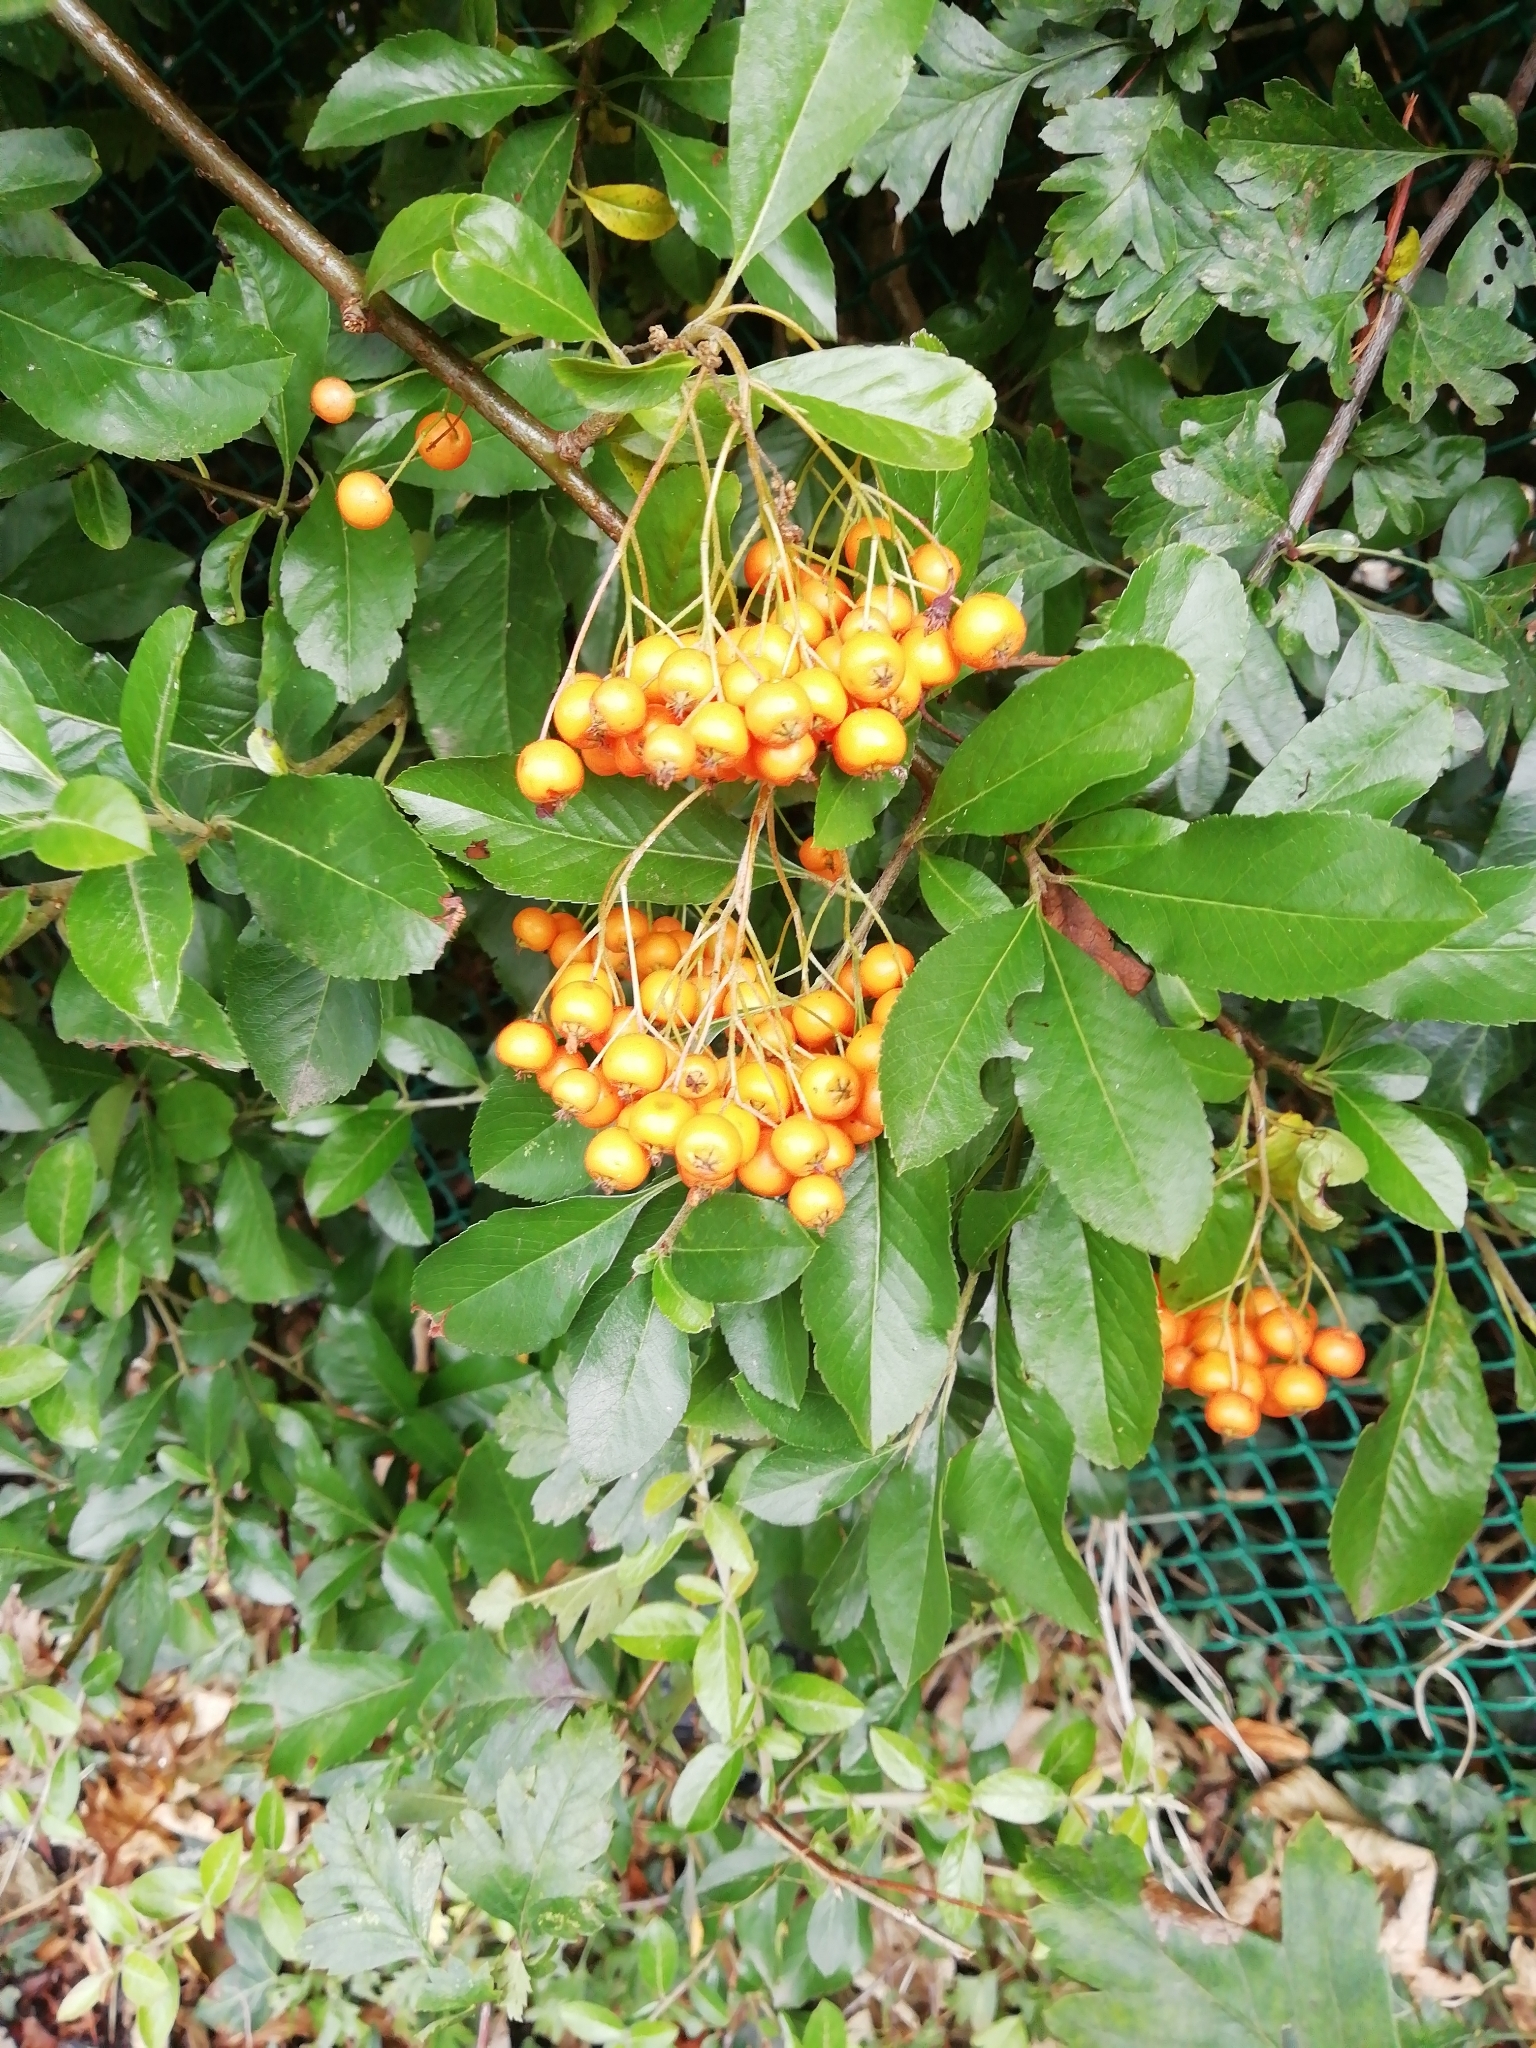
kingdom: Plantae
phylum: Tracheophyta
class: Magnoliopsida
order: Rosales
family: Rosaceae
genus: Pyracantha
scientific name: Pyracantha coccinea
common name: Firethorn
